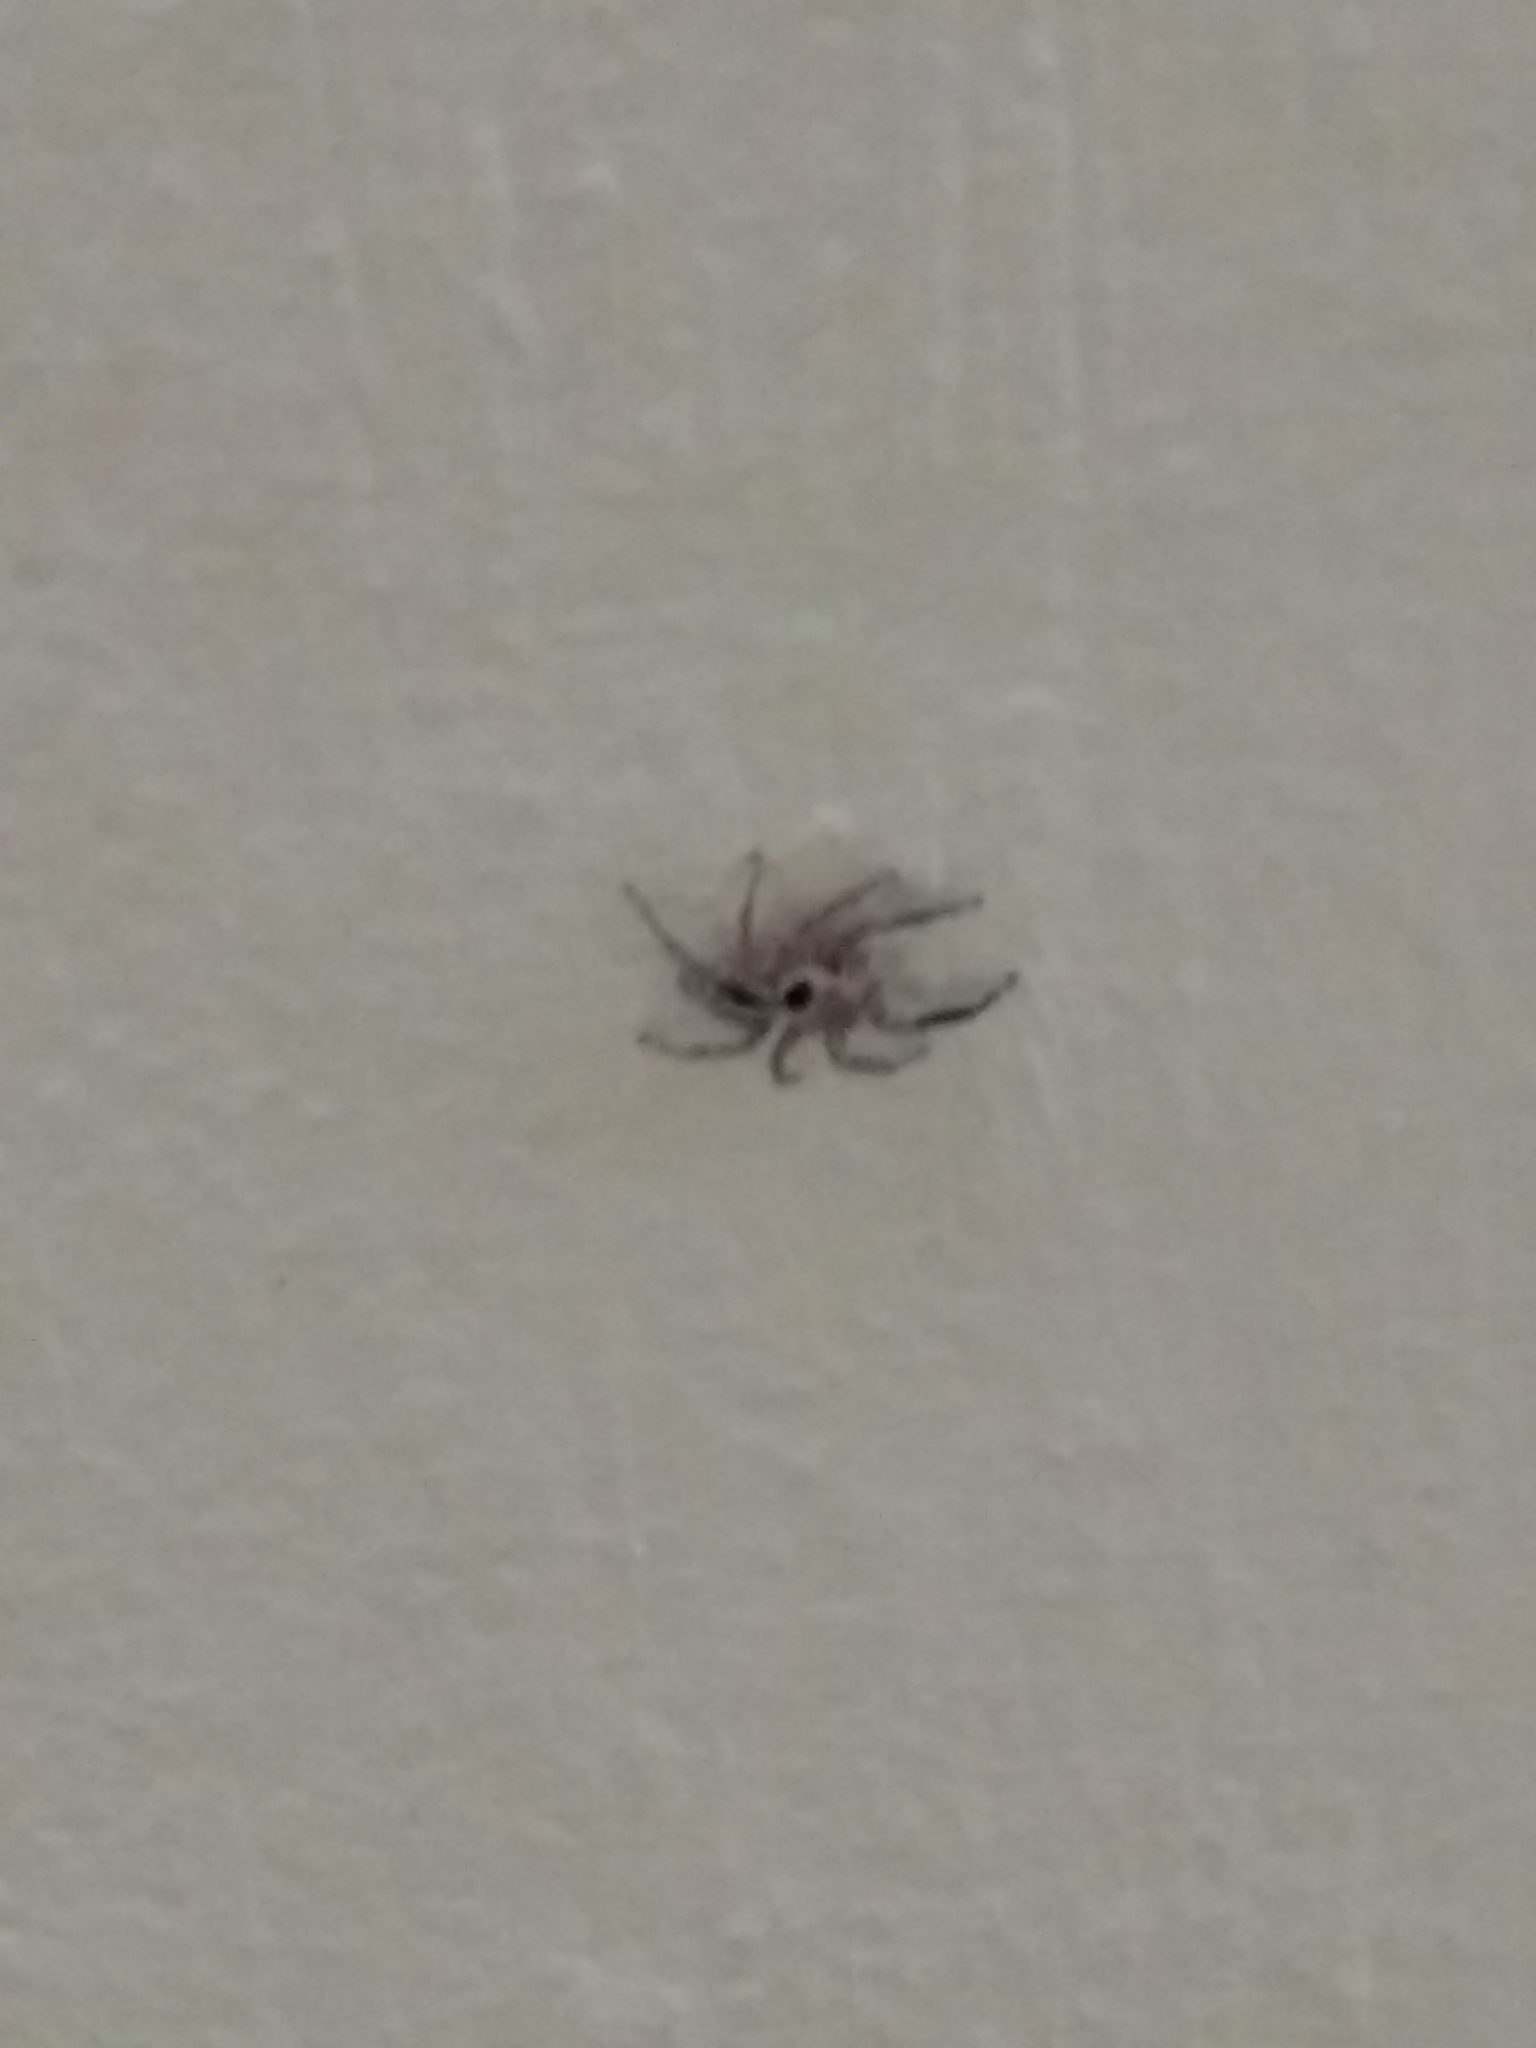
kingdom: Animalia
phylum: Arthropoda
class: Arachnida
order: Araneae
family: Salticidae
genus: Plexippus
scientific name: Plexippus petersi
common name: Jumping spider
